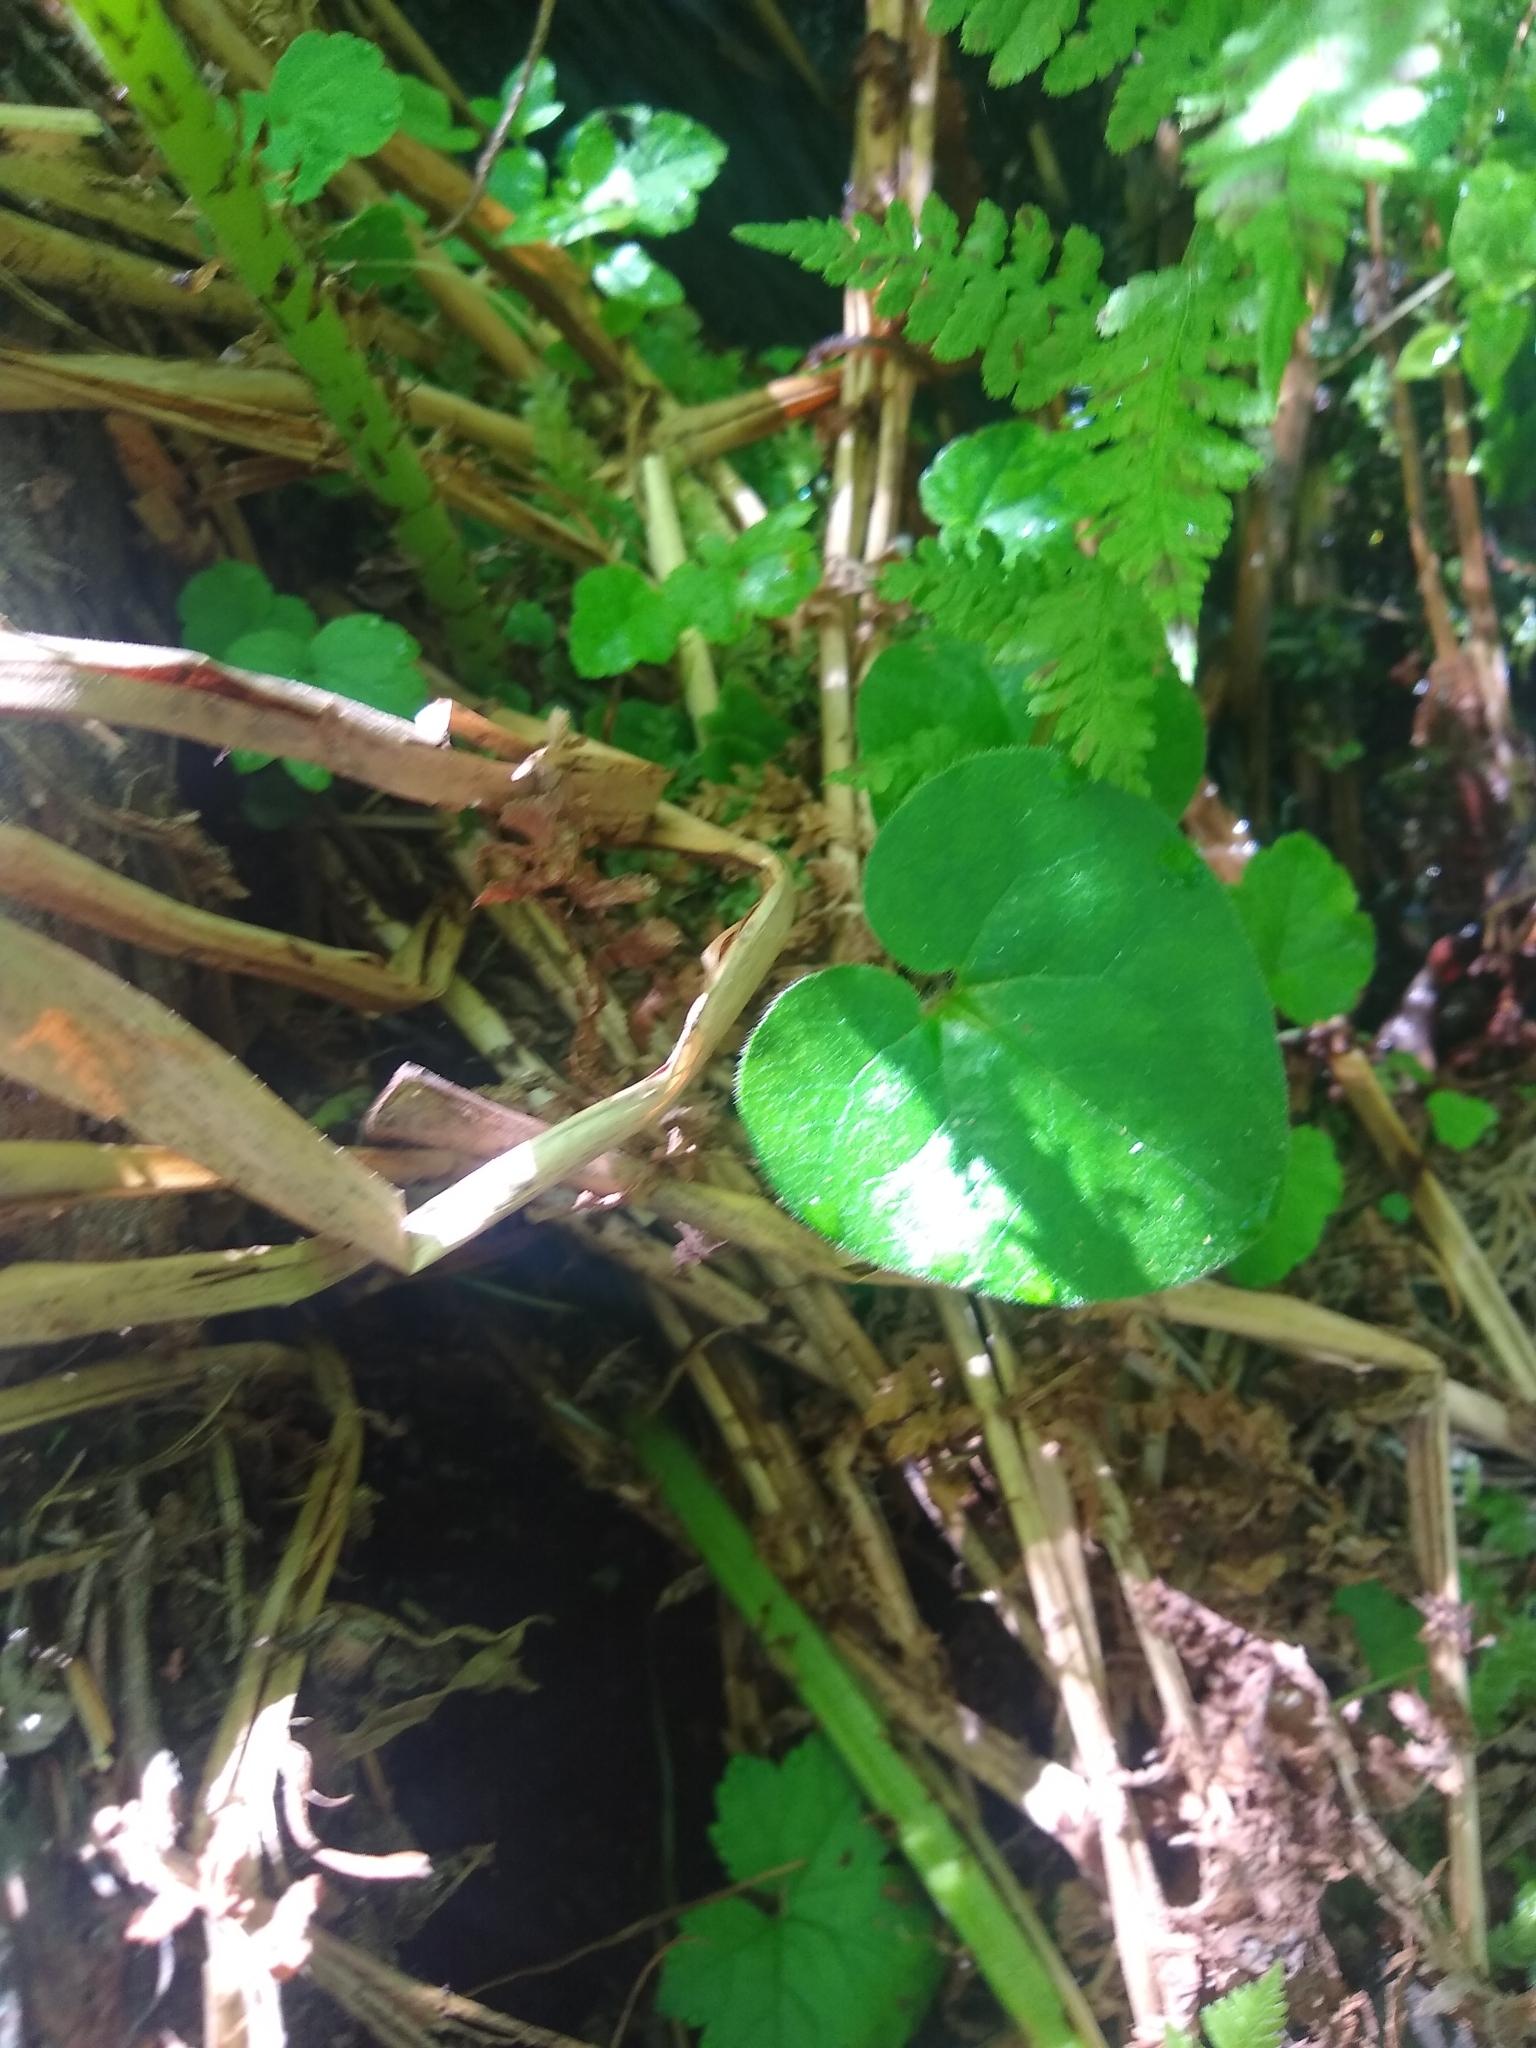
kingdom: Plantae
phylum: Tracheophyta
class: Magnoliopsida
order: Piperales
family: Aristolochiaceae
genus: Asarum
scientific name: Asarum caudatum
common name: Wild ginger
